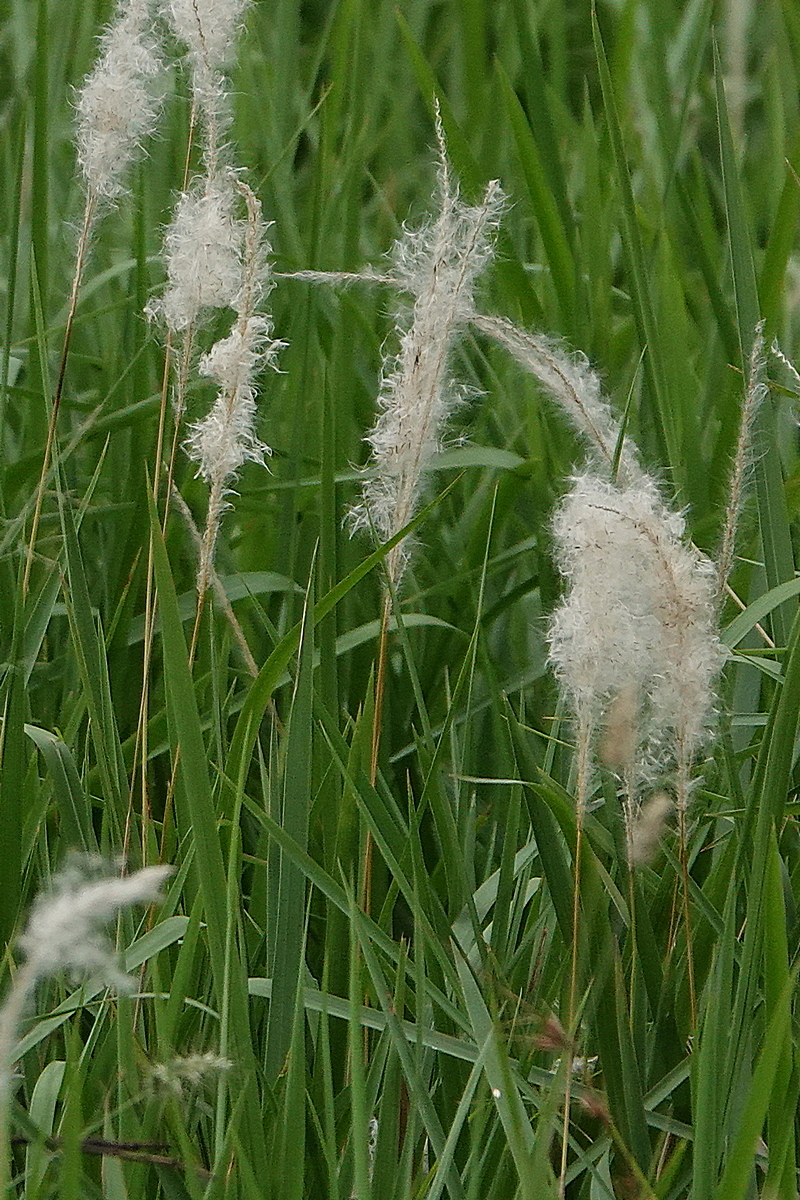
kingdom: Plantae
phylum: Tracheophyta
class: Liliopsida
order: Poales
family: Poaceae
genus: Imperata
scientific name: Imperata cylindrica
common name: Cogongrass
